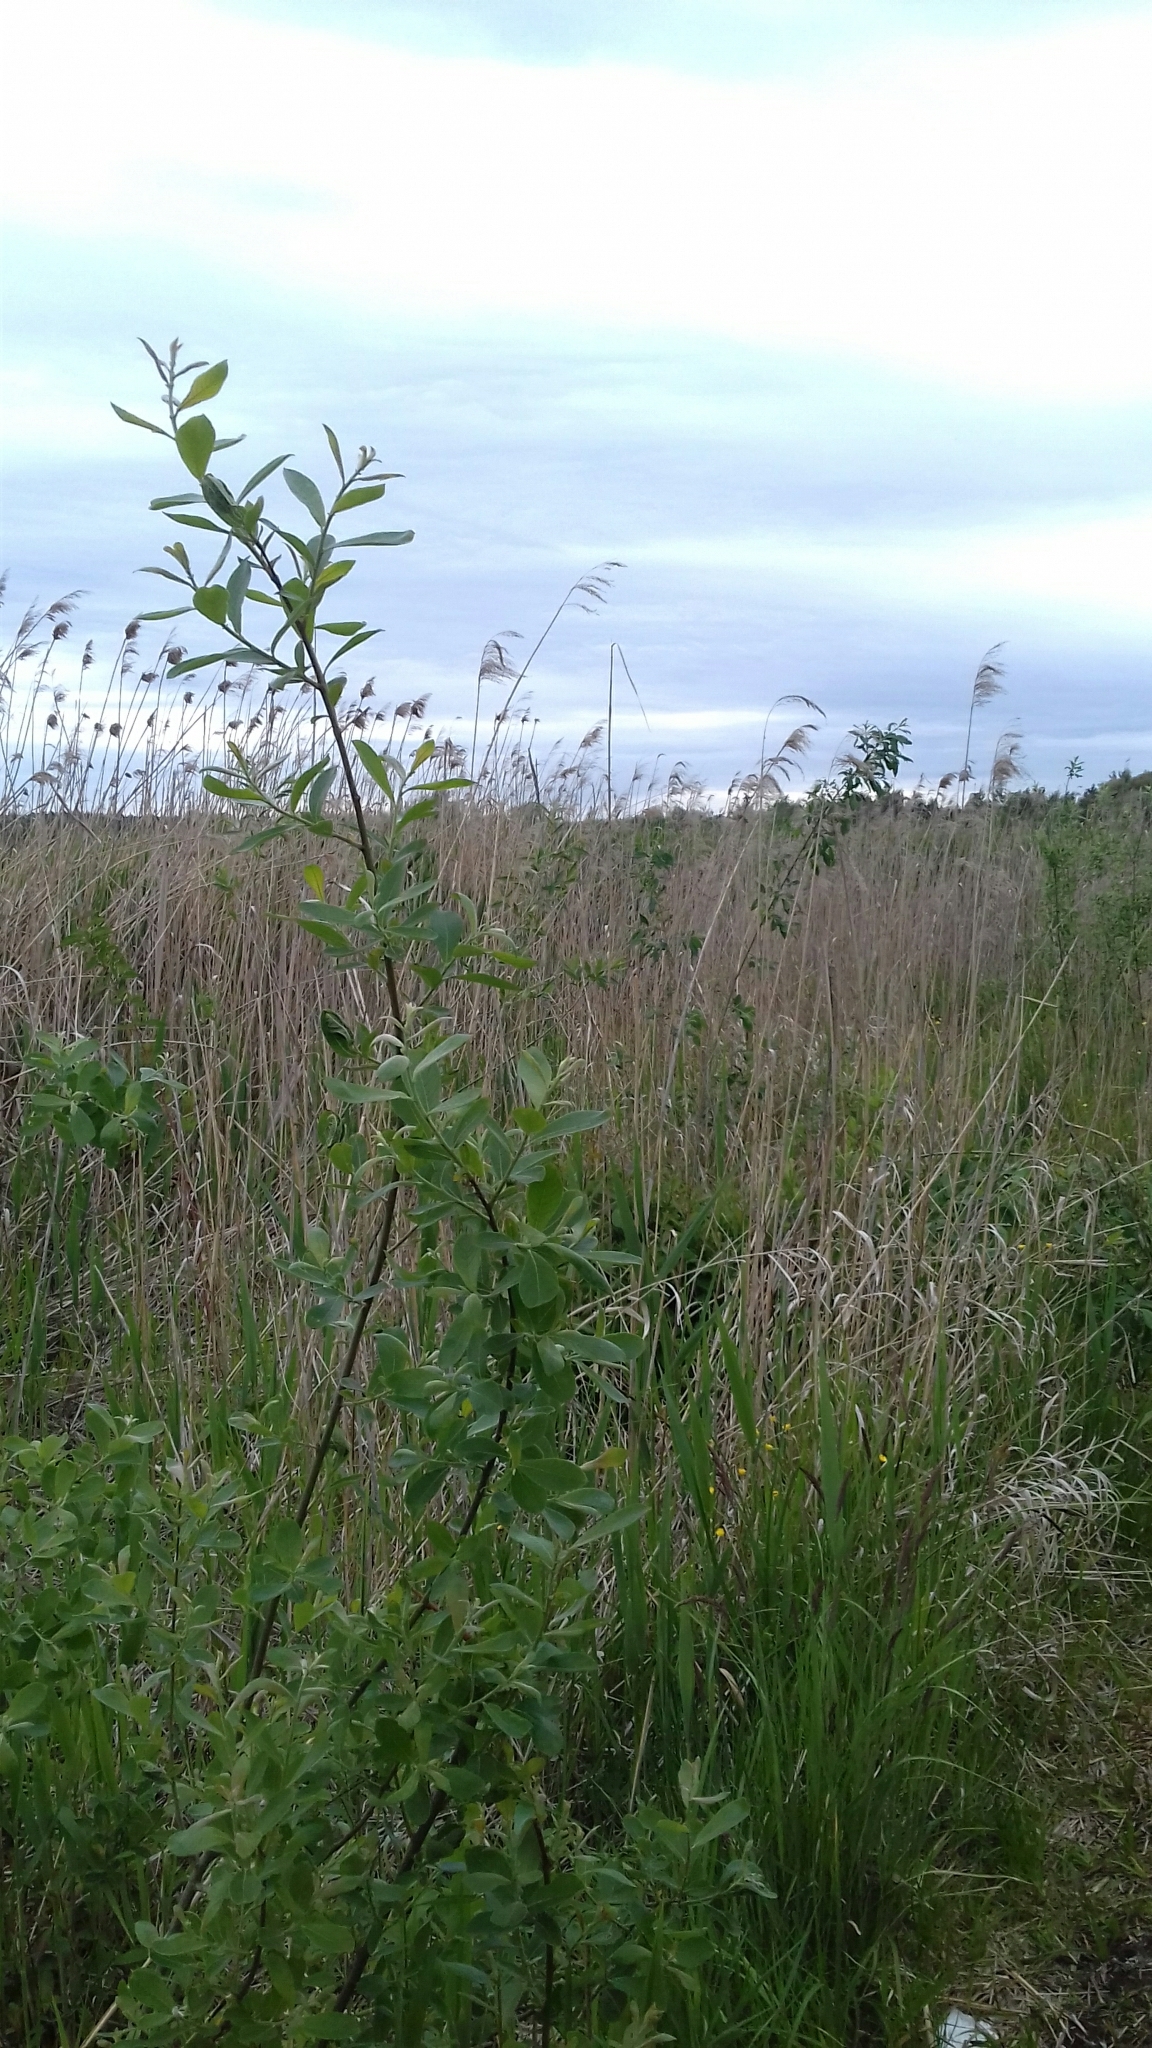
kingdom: Plantae
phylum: Tracheophyta
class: Magnoliopsida
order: Malpighiales
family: Salicaceae
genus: Salix
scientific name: Salix cinerea
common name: Common sallow
